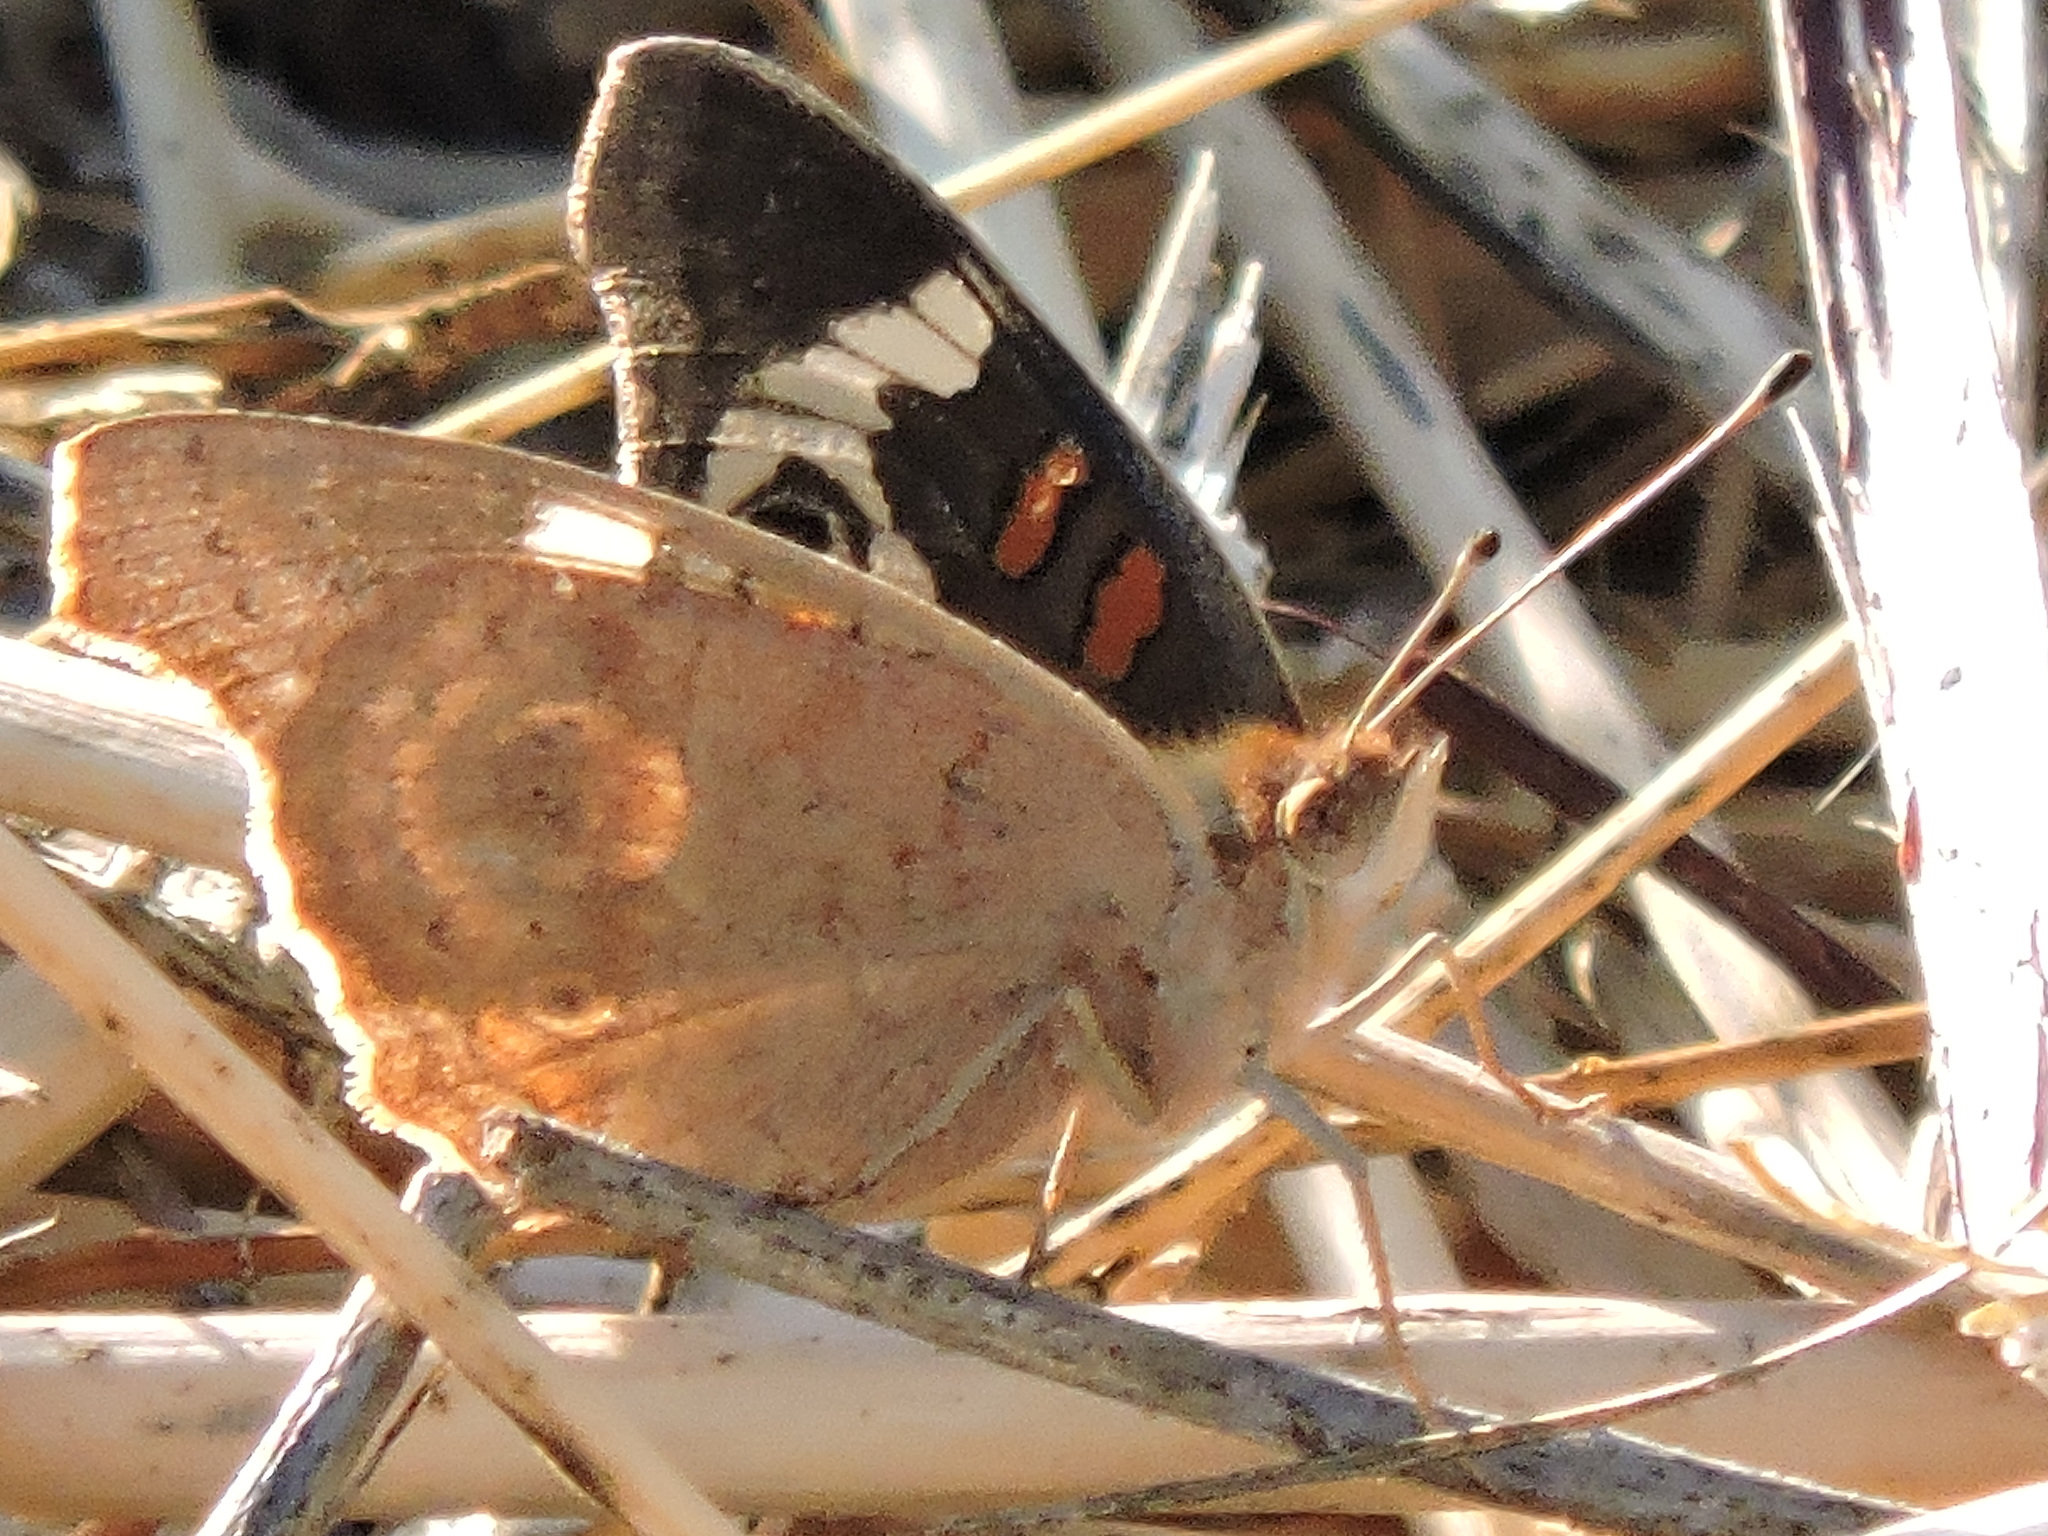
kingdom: Animalia
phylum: Arthropoda
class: Insecta
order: Lepidoptera
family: Nymphalidae
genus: Junonia
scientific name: Junonia grisea
